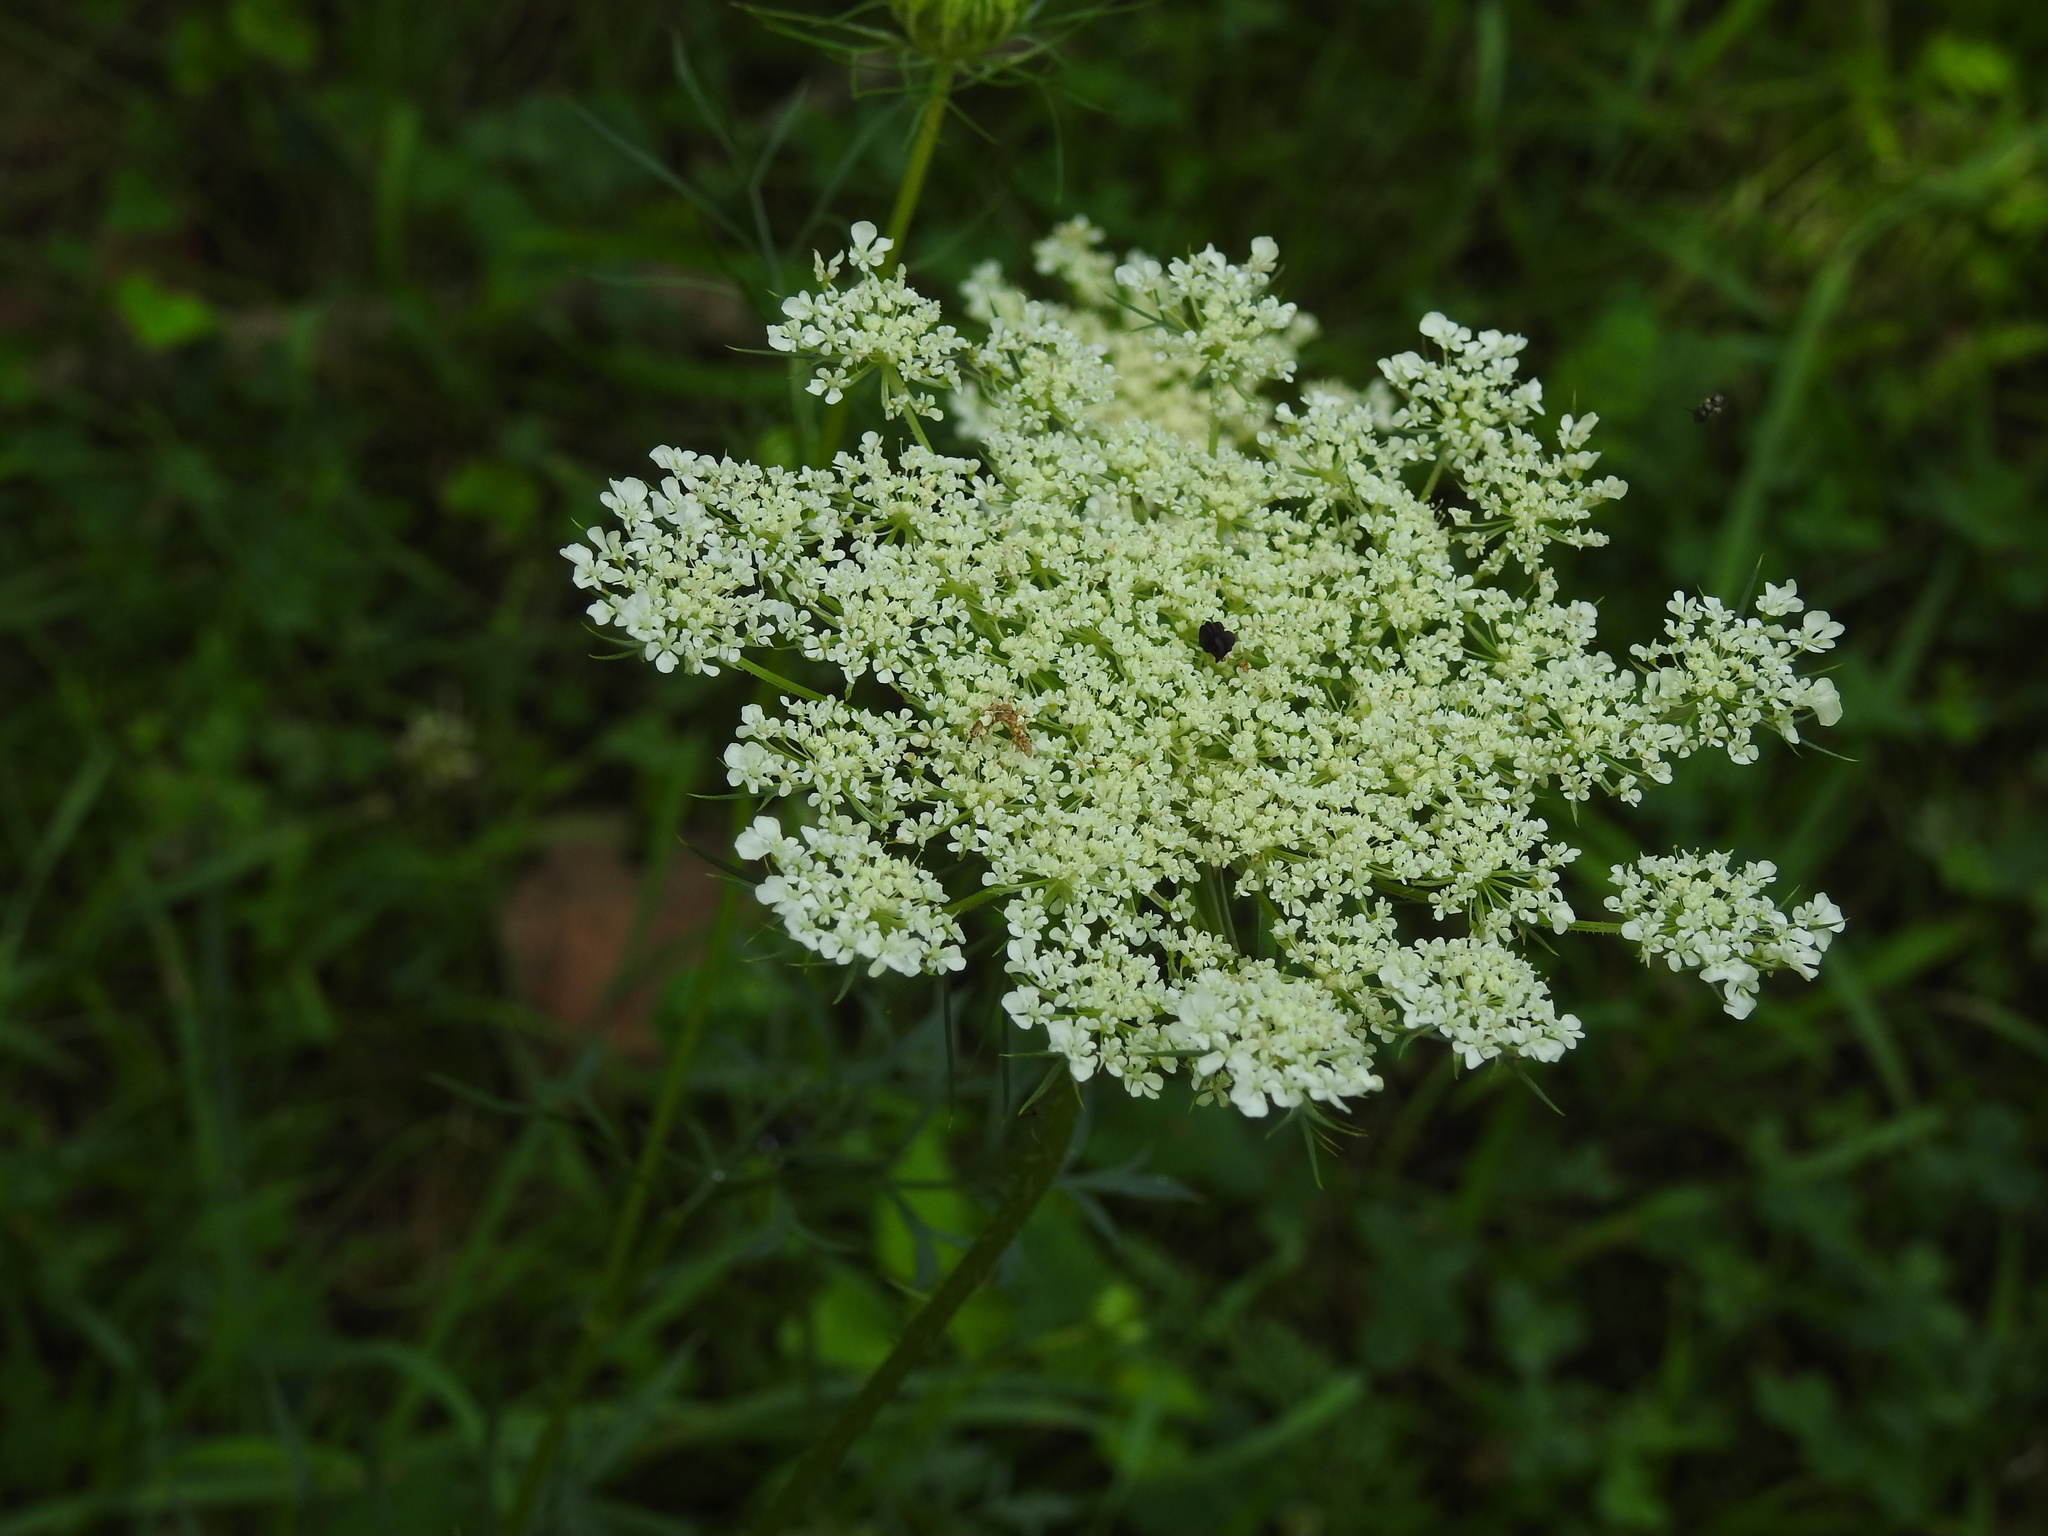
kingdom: Plantae
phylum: Tracheophyta
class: Magnoliopsida
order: Apiales
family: Apiaceae
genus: Daucus
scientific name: Daucus carota
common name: Wild carrot
